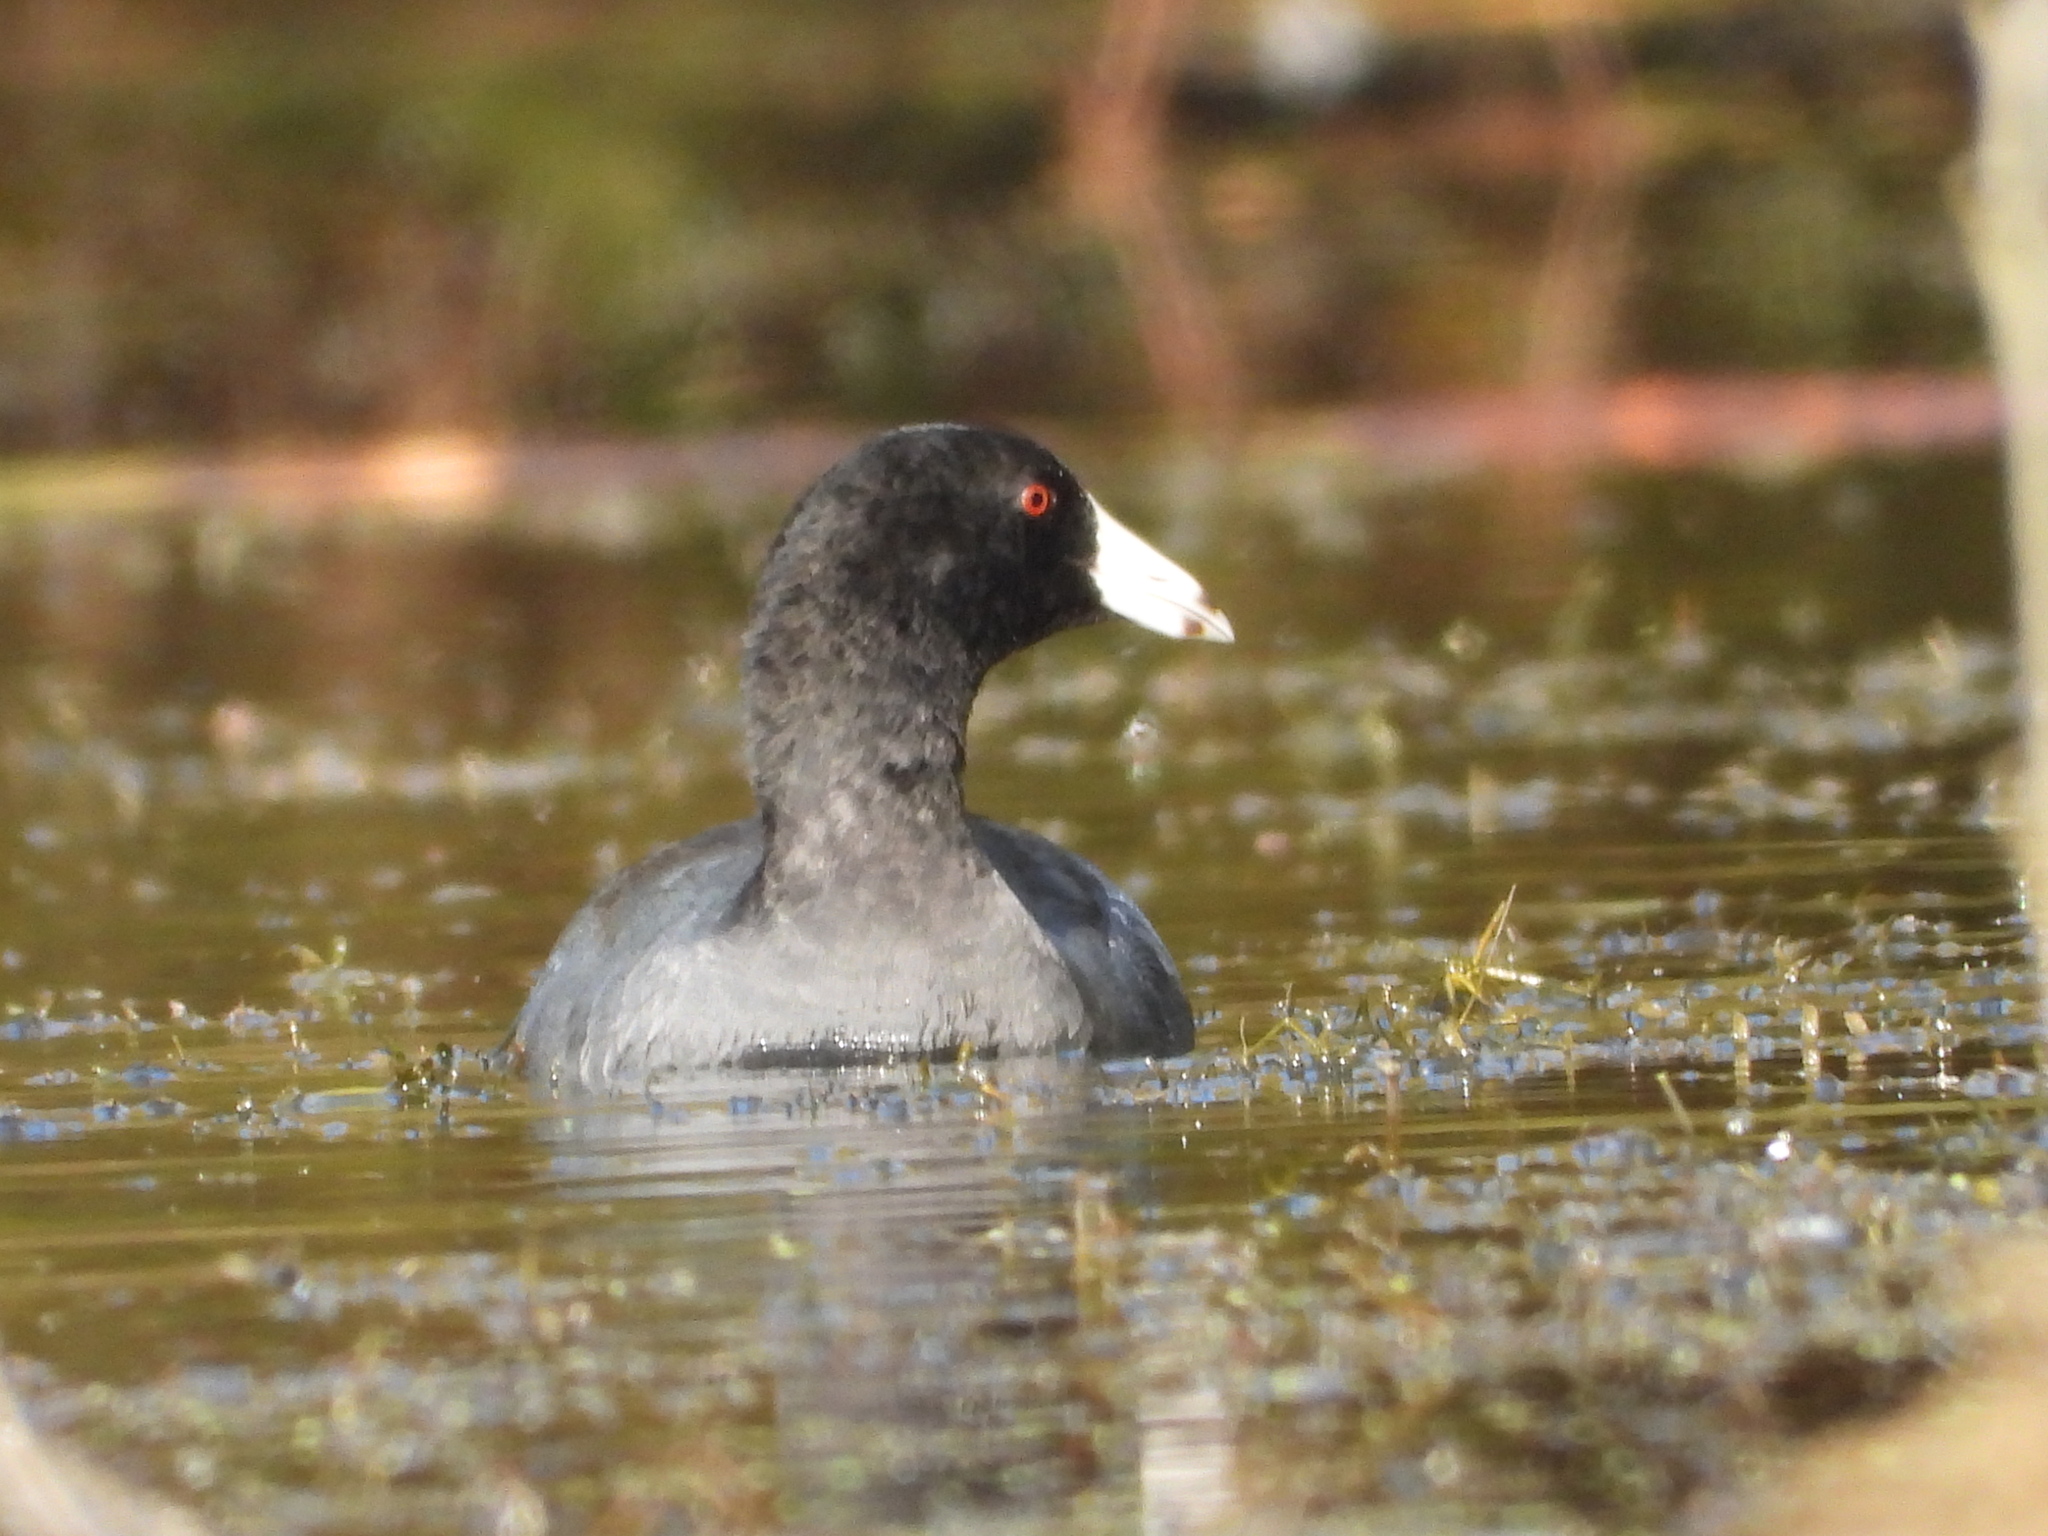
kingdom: Animalia
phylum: Chordata
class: Aves
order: Gruiformes
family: Rallidae
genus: Fulica
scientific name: Fulica americana
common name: American coot
